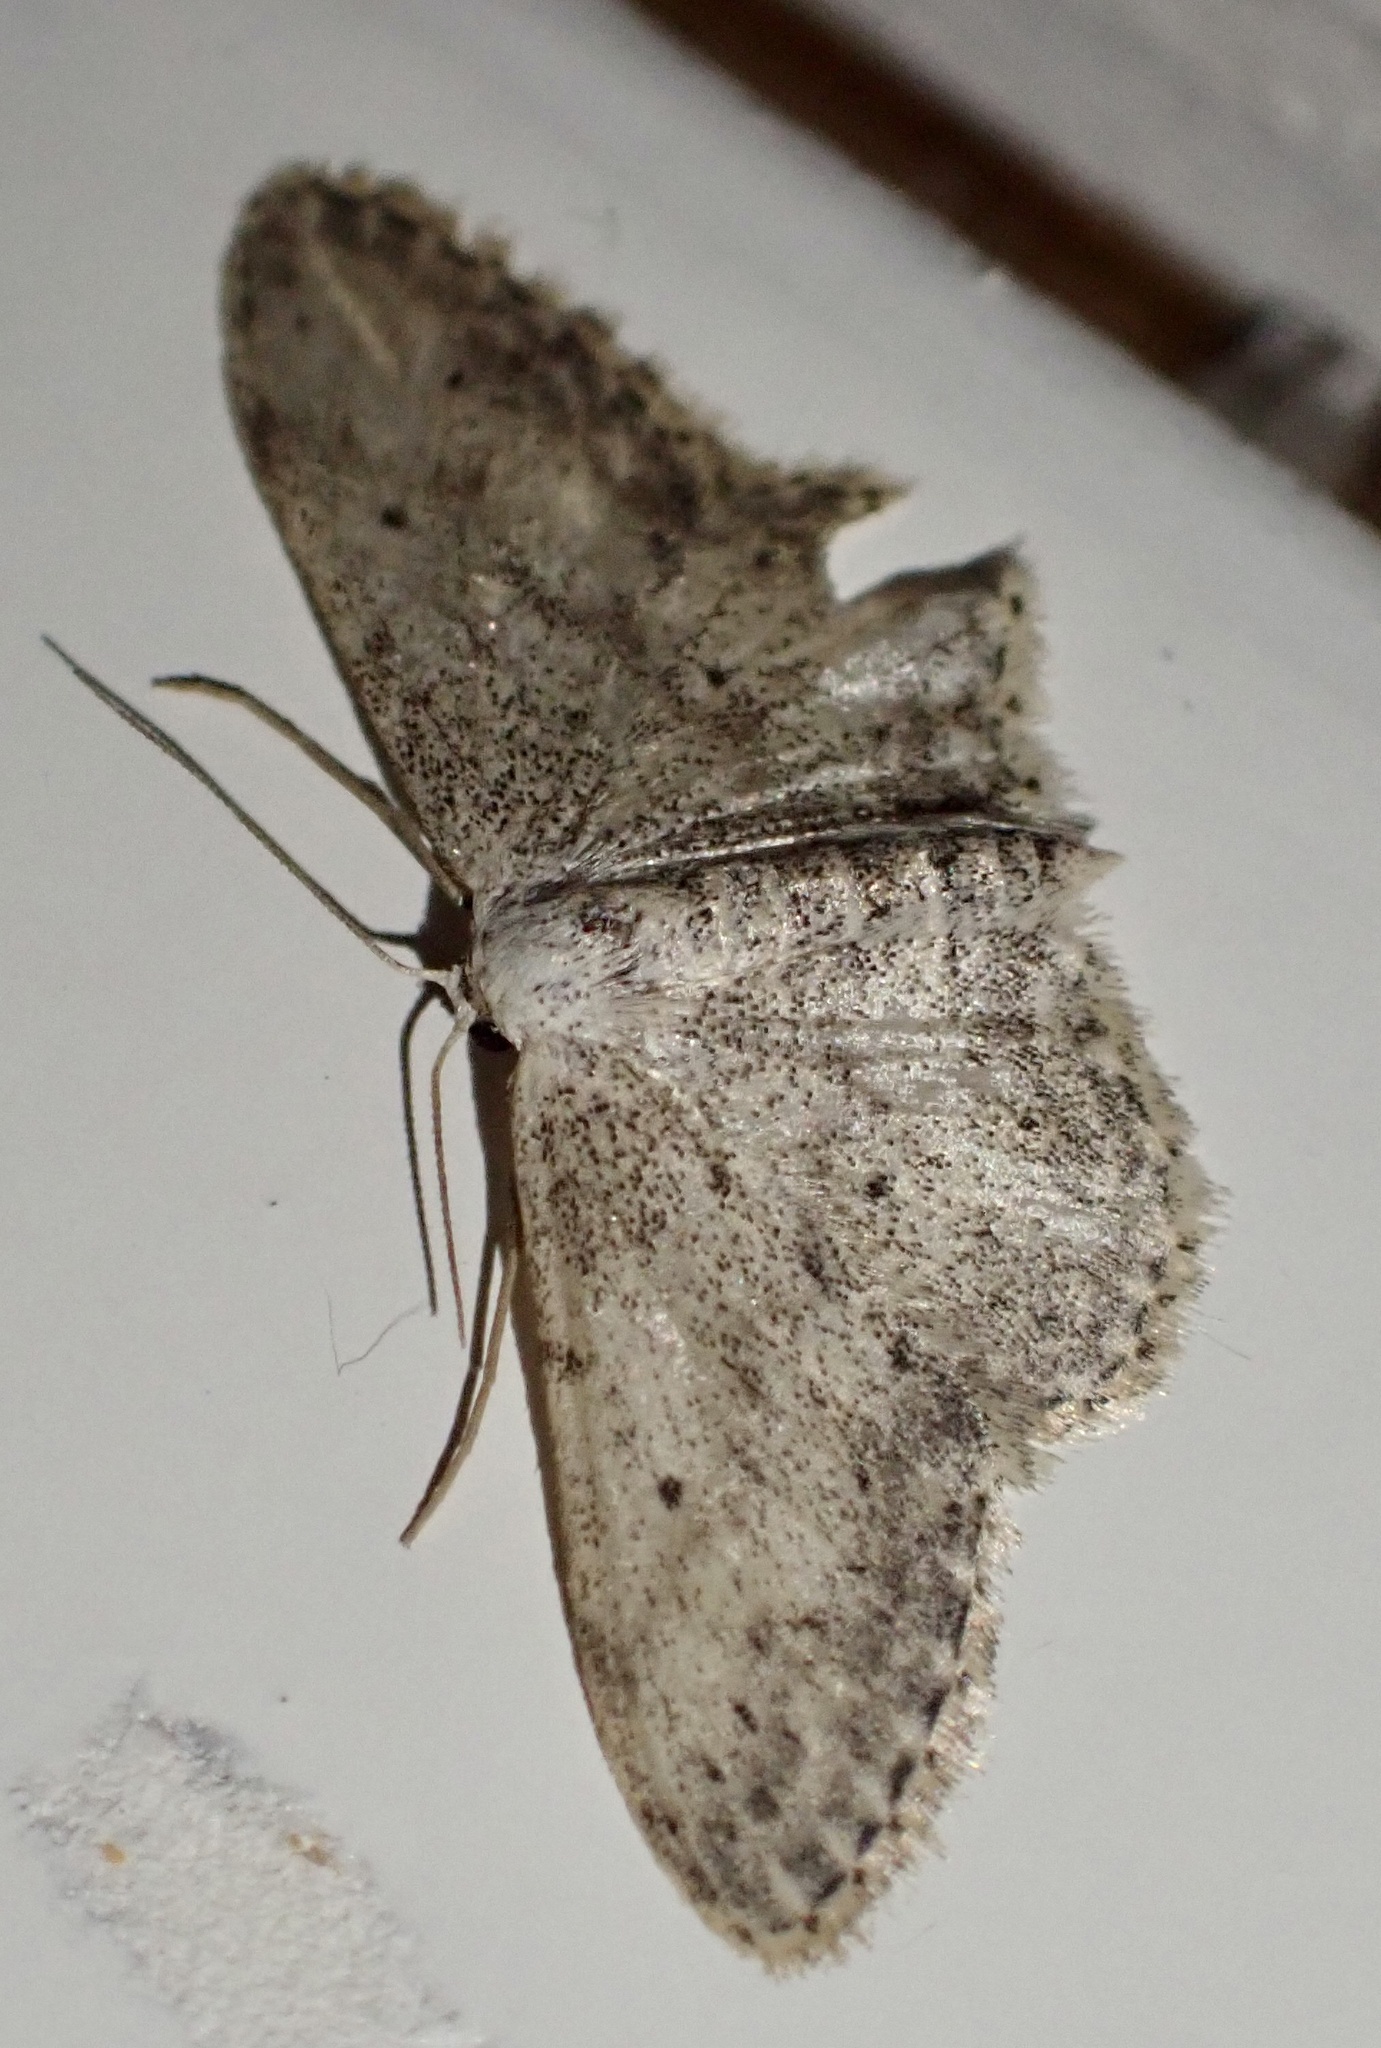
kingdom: Animalia
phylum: Arthropoda
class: Insecta
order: Lepidoptera
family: Geometridae
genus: Idaea
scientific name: Idaea seriata
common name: Small dusty wave
